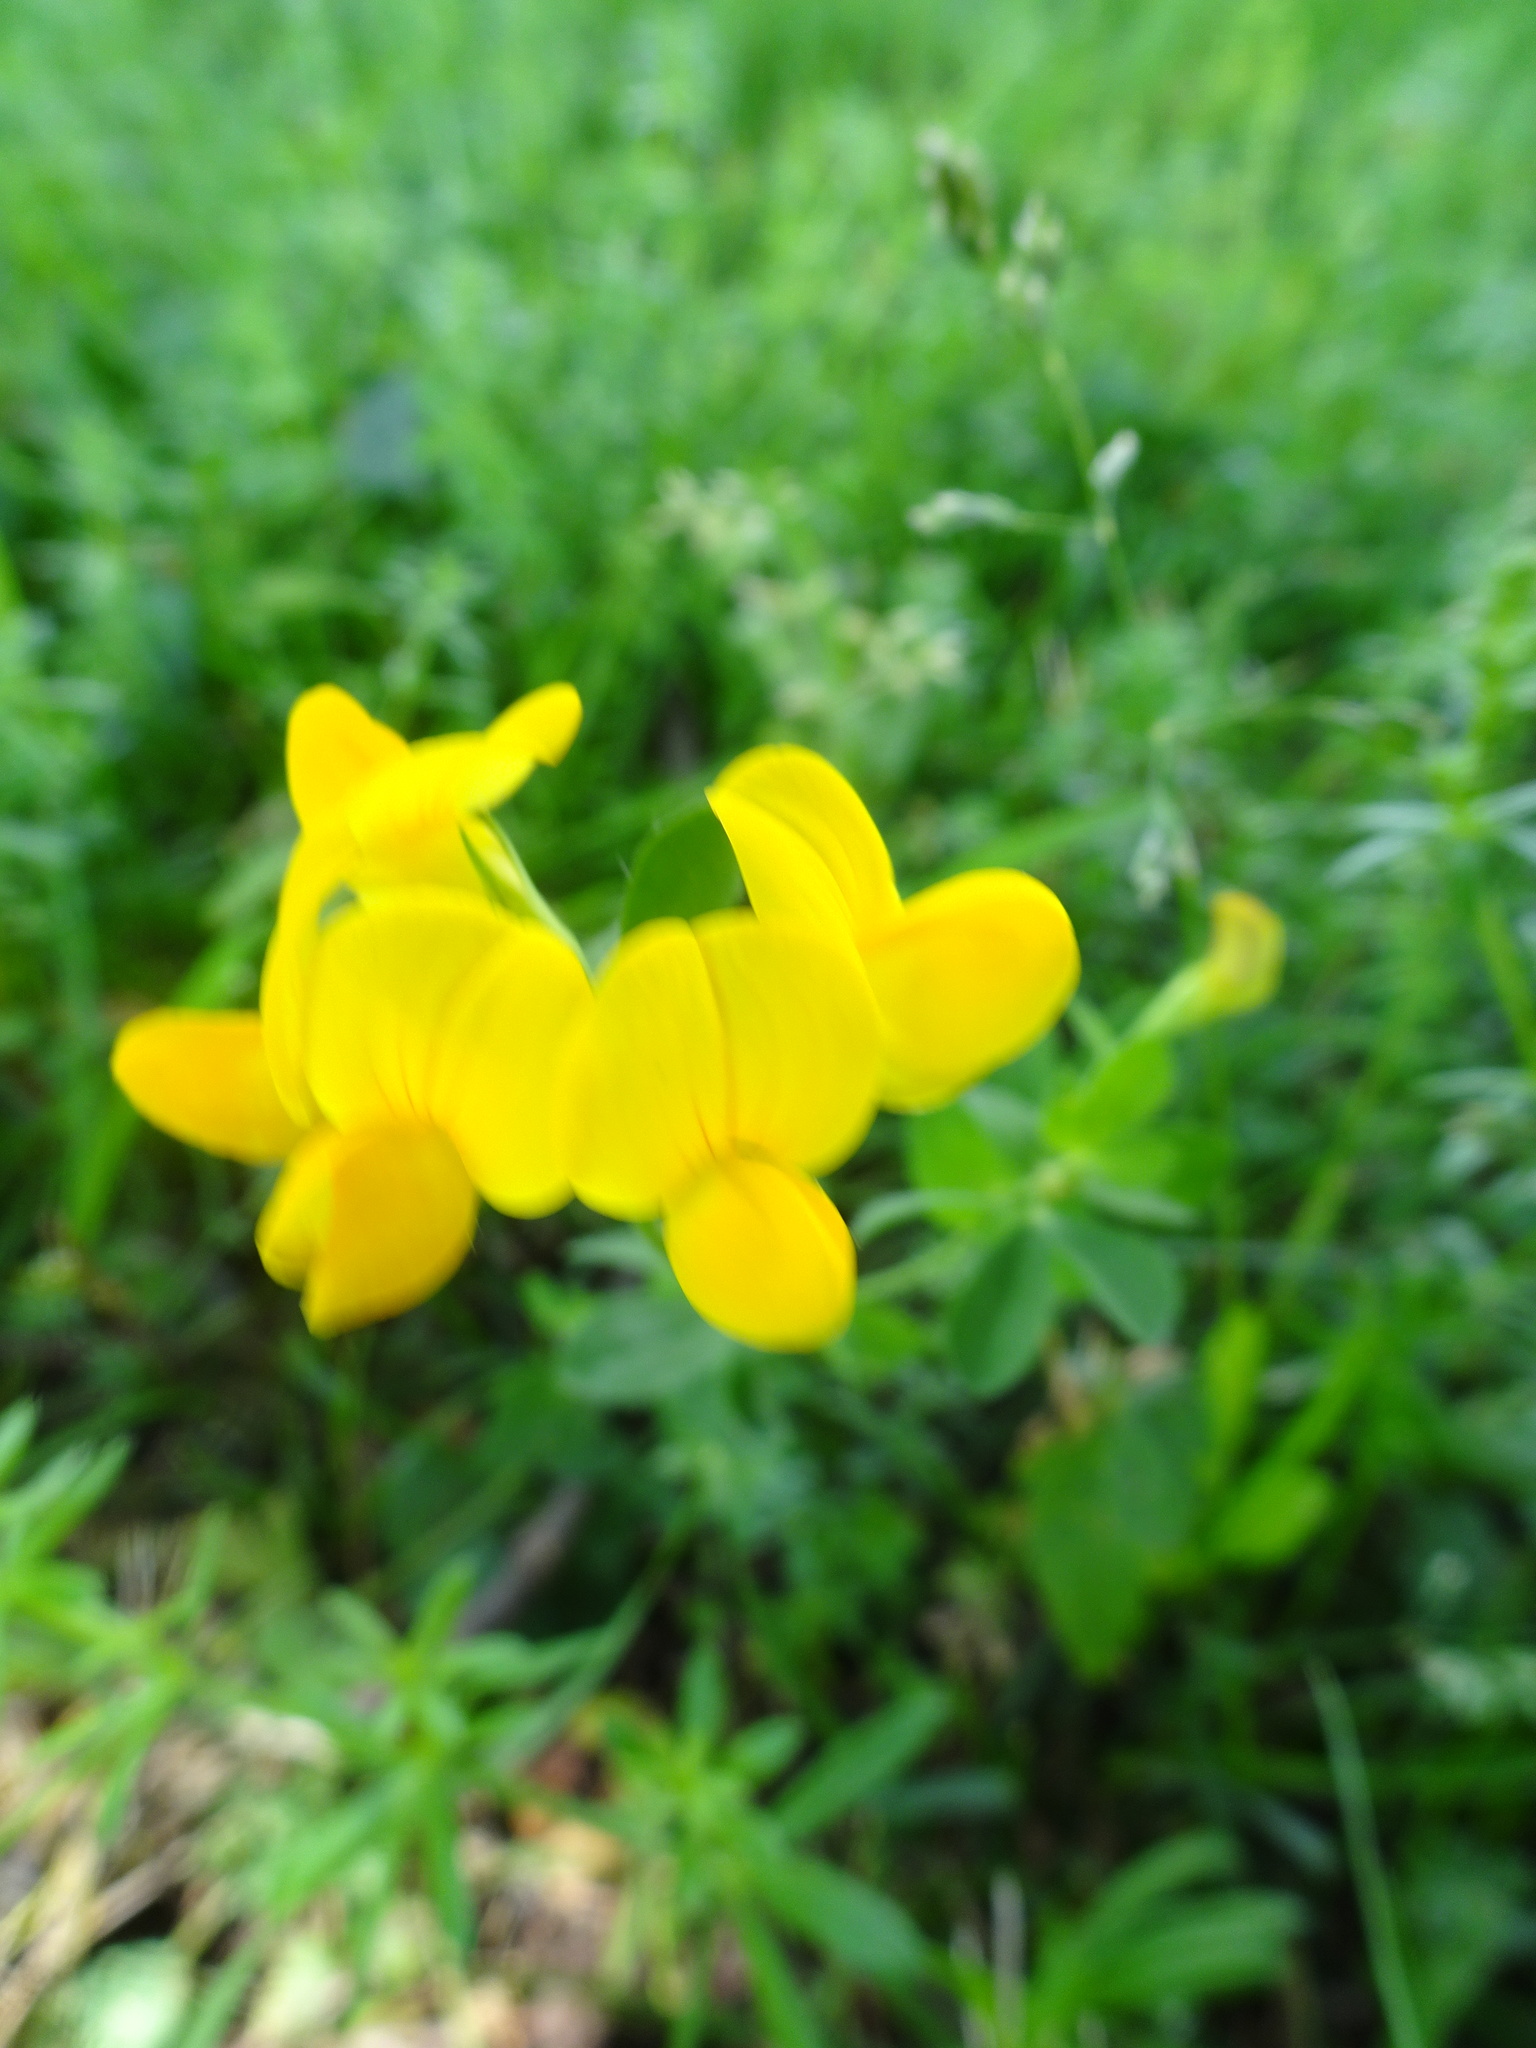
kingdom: Plantae
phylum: Tracheophyta
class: Magnoliopsida
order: Fabales
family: Fabaceae
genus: Lotus
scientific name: Lotus corniculatus
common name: Common bird's-foot-trefoil
